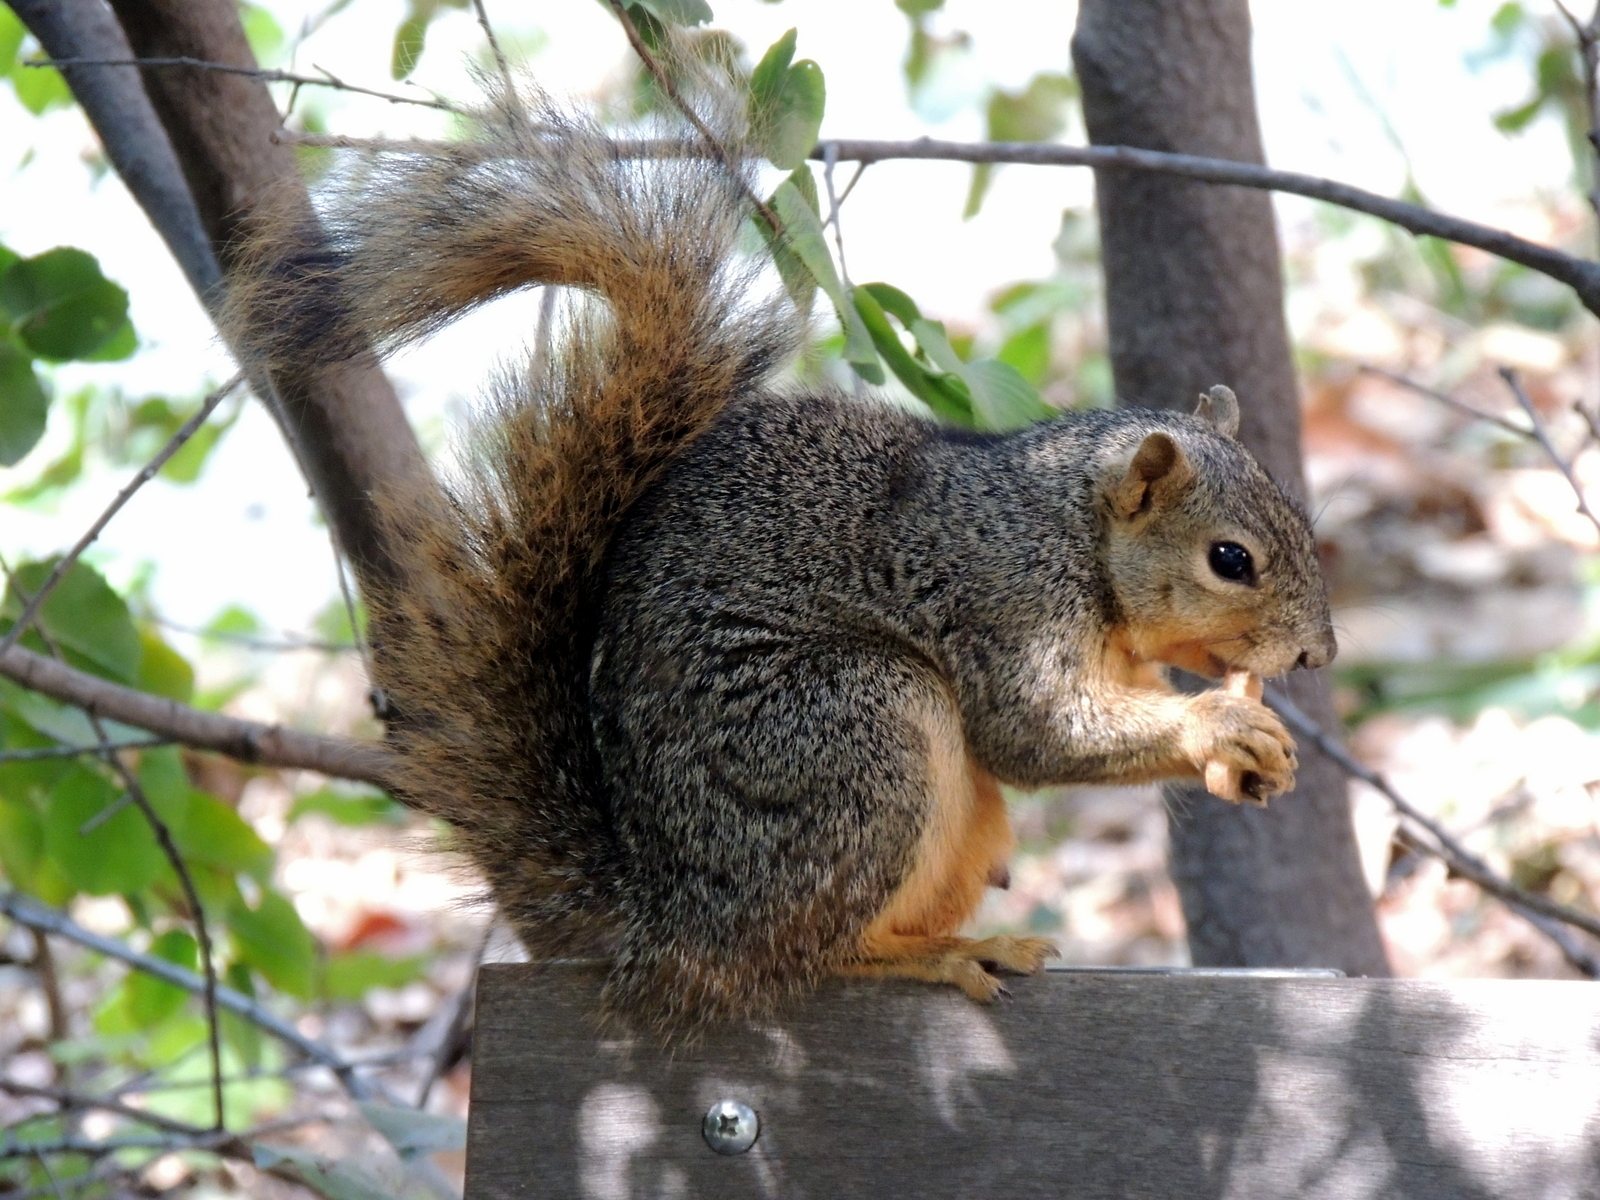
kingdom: Animalia
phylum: Chordata
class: Mammalia
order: Rodentia
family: Sciuridae
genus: Sciurus
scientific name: Sciurus niger
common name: Fox squirrel
